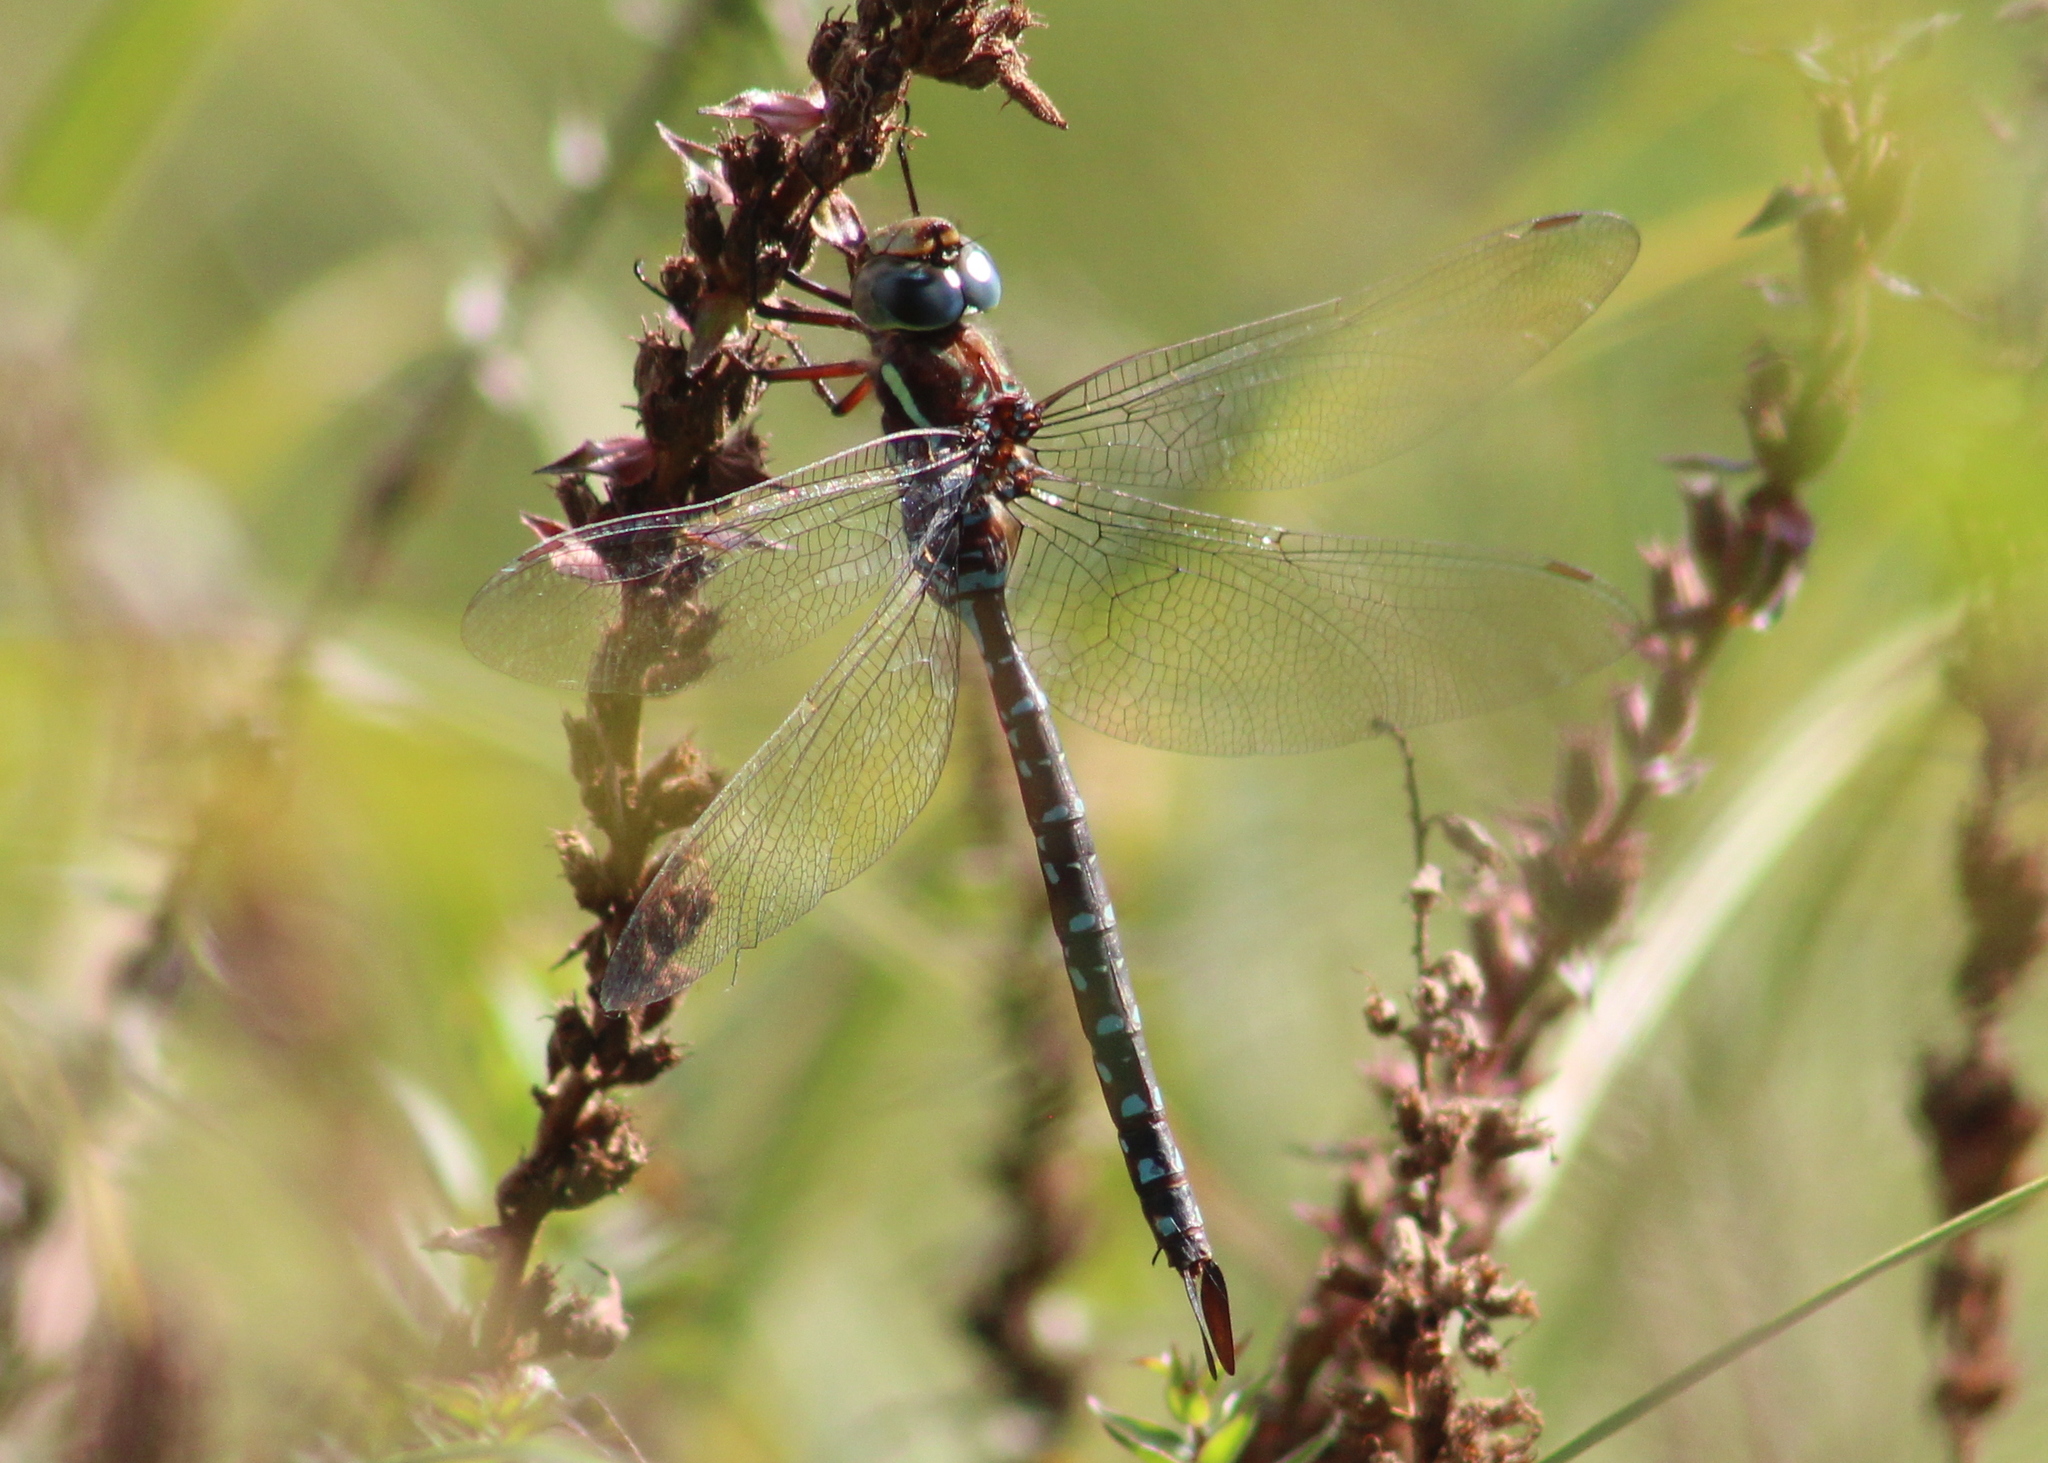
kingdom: Animalia
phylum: Arthropoda
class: Insecta
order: Odonata
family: Aeshnidae
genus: Aeshna
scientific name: Aeshna tuberculifera
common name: Aeschne à tubercules
